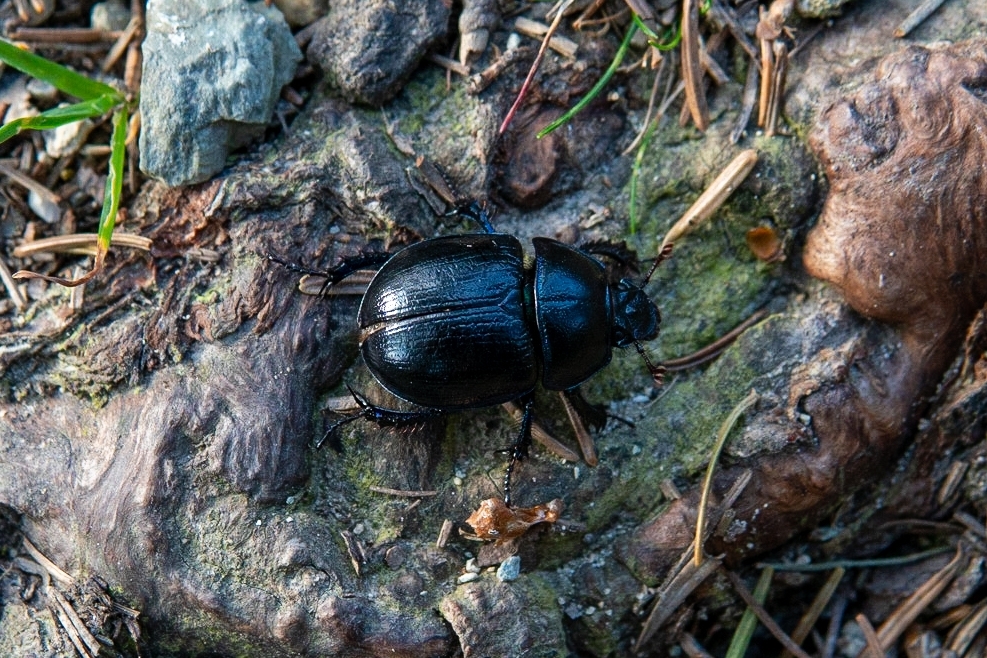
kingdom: Animalia
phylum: Arthropoda
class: Insecta
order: Coleoptera
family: Geotrupidae
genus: Anoplotrupes
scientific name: Anoplotrupes stercorosus
